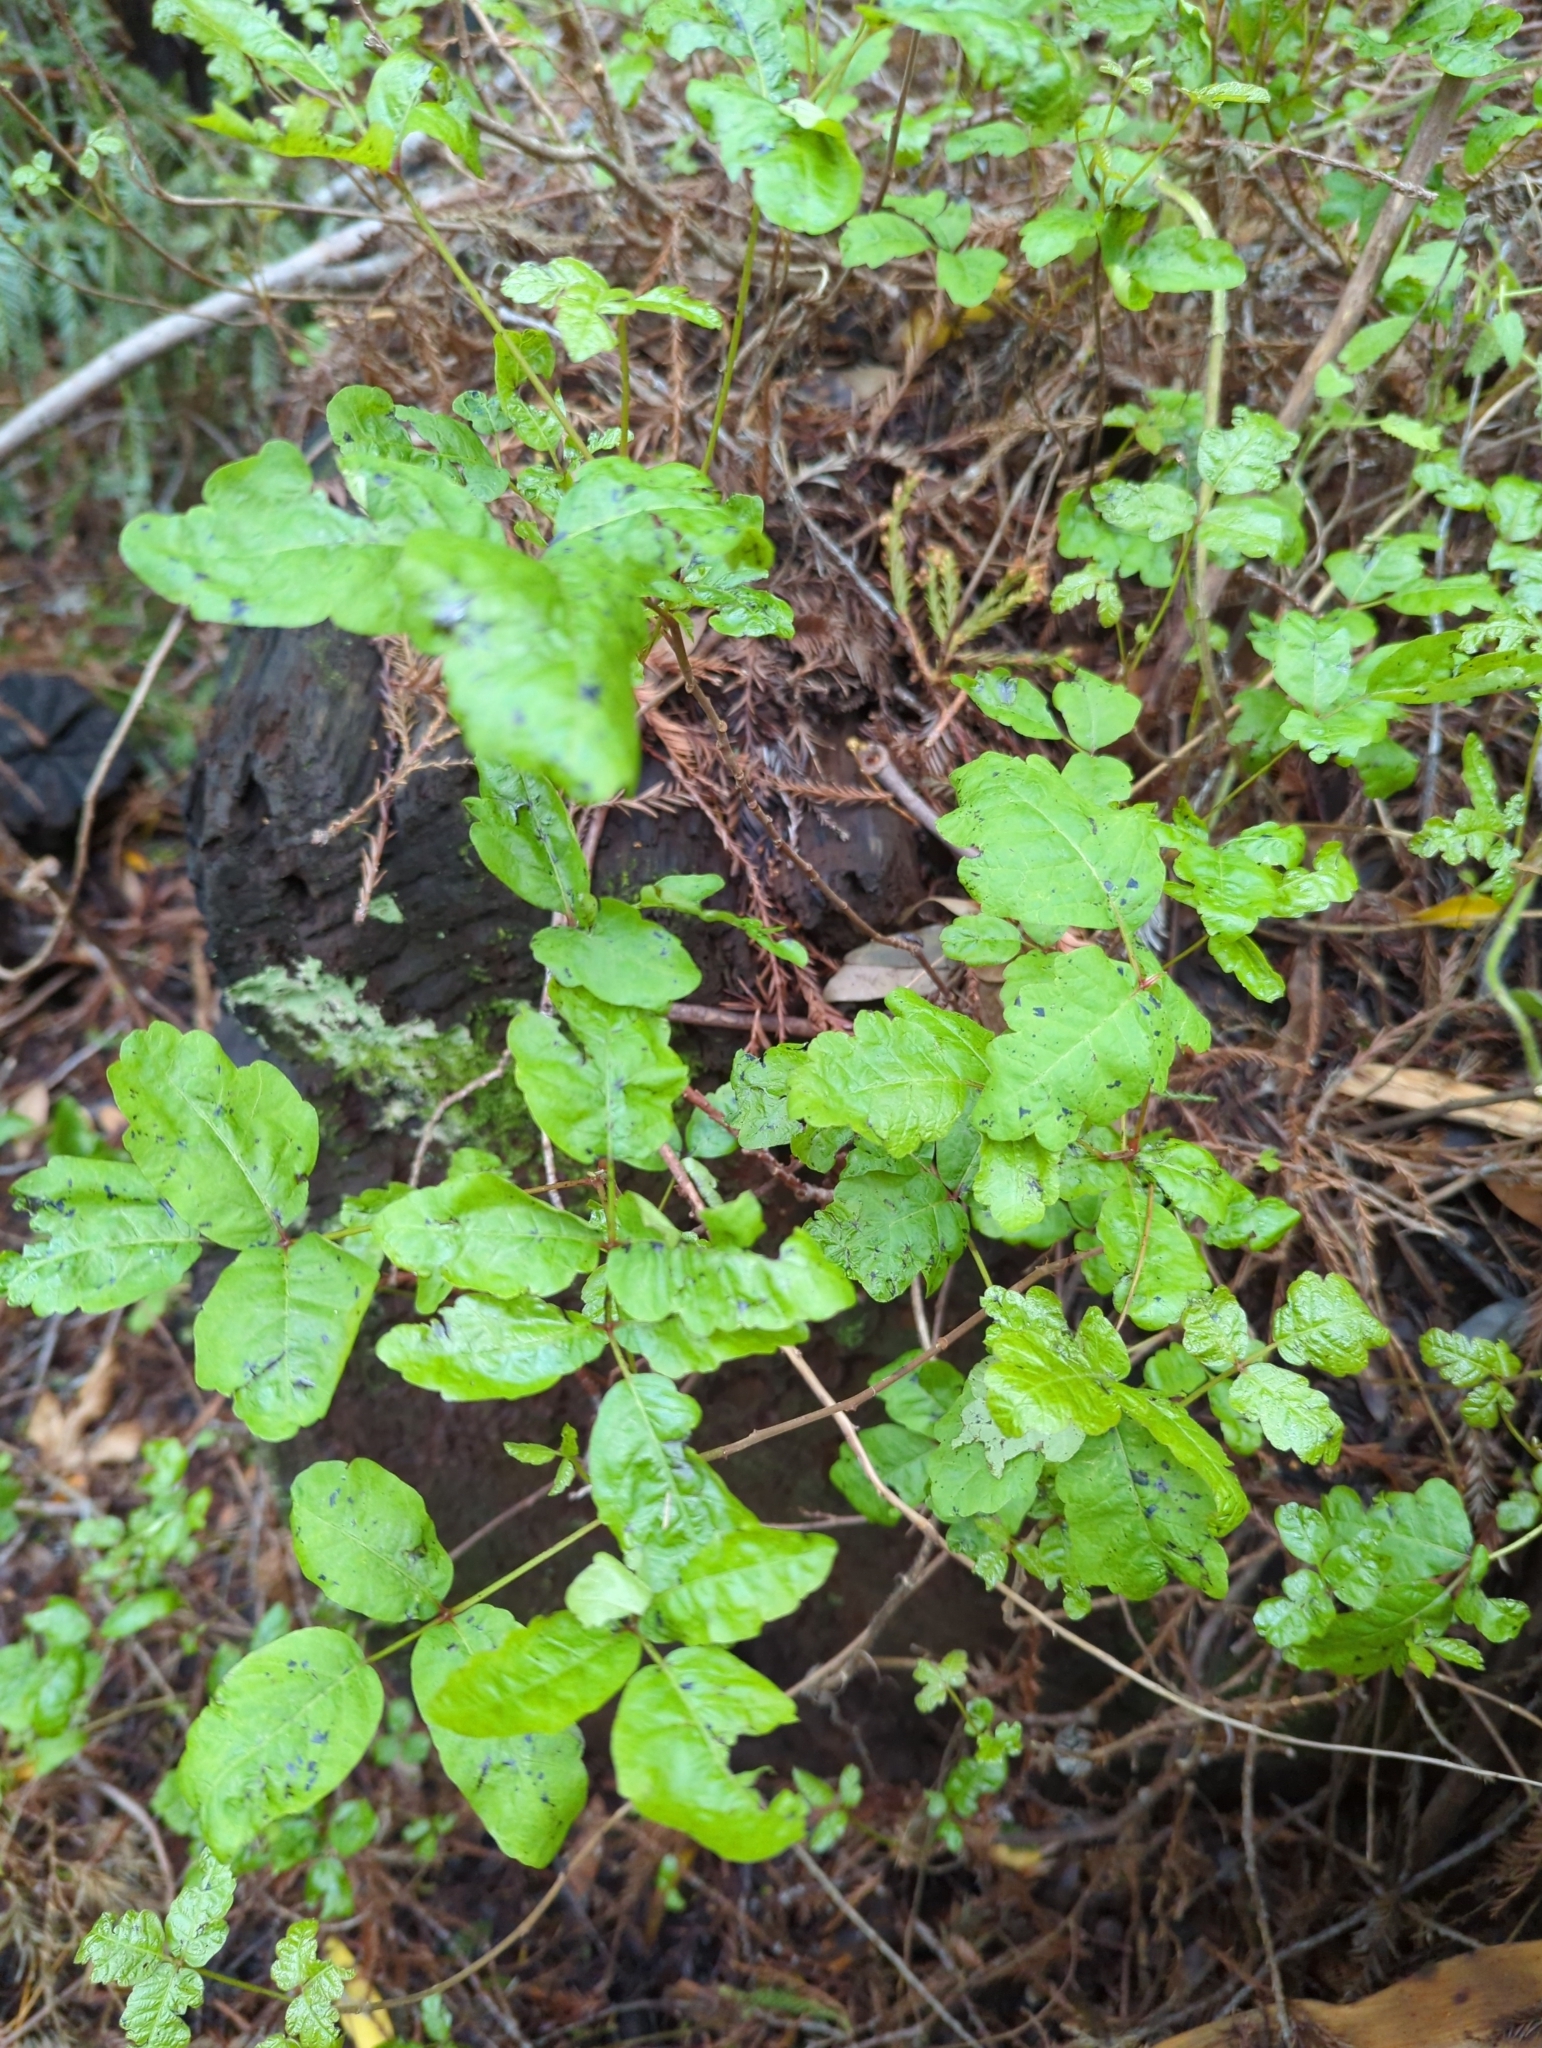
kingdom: Plantae
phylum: Tracheophyta
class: Magnoliopsida
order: Sapindales
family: Anacardiaceae
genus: Toxicodendron
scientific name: Toxicodendron diversilobum
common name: Pacific poison-oak
